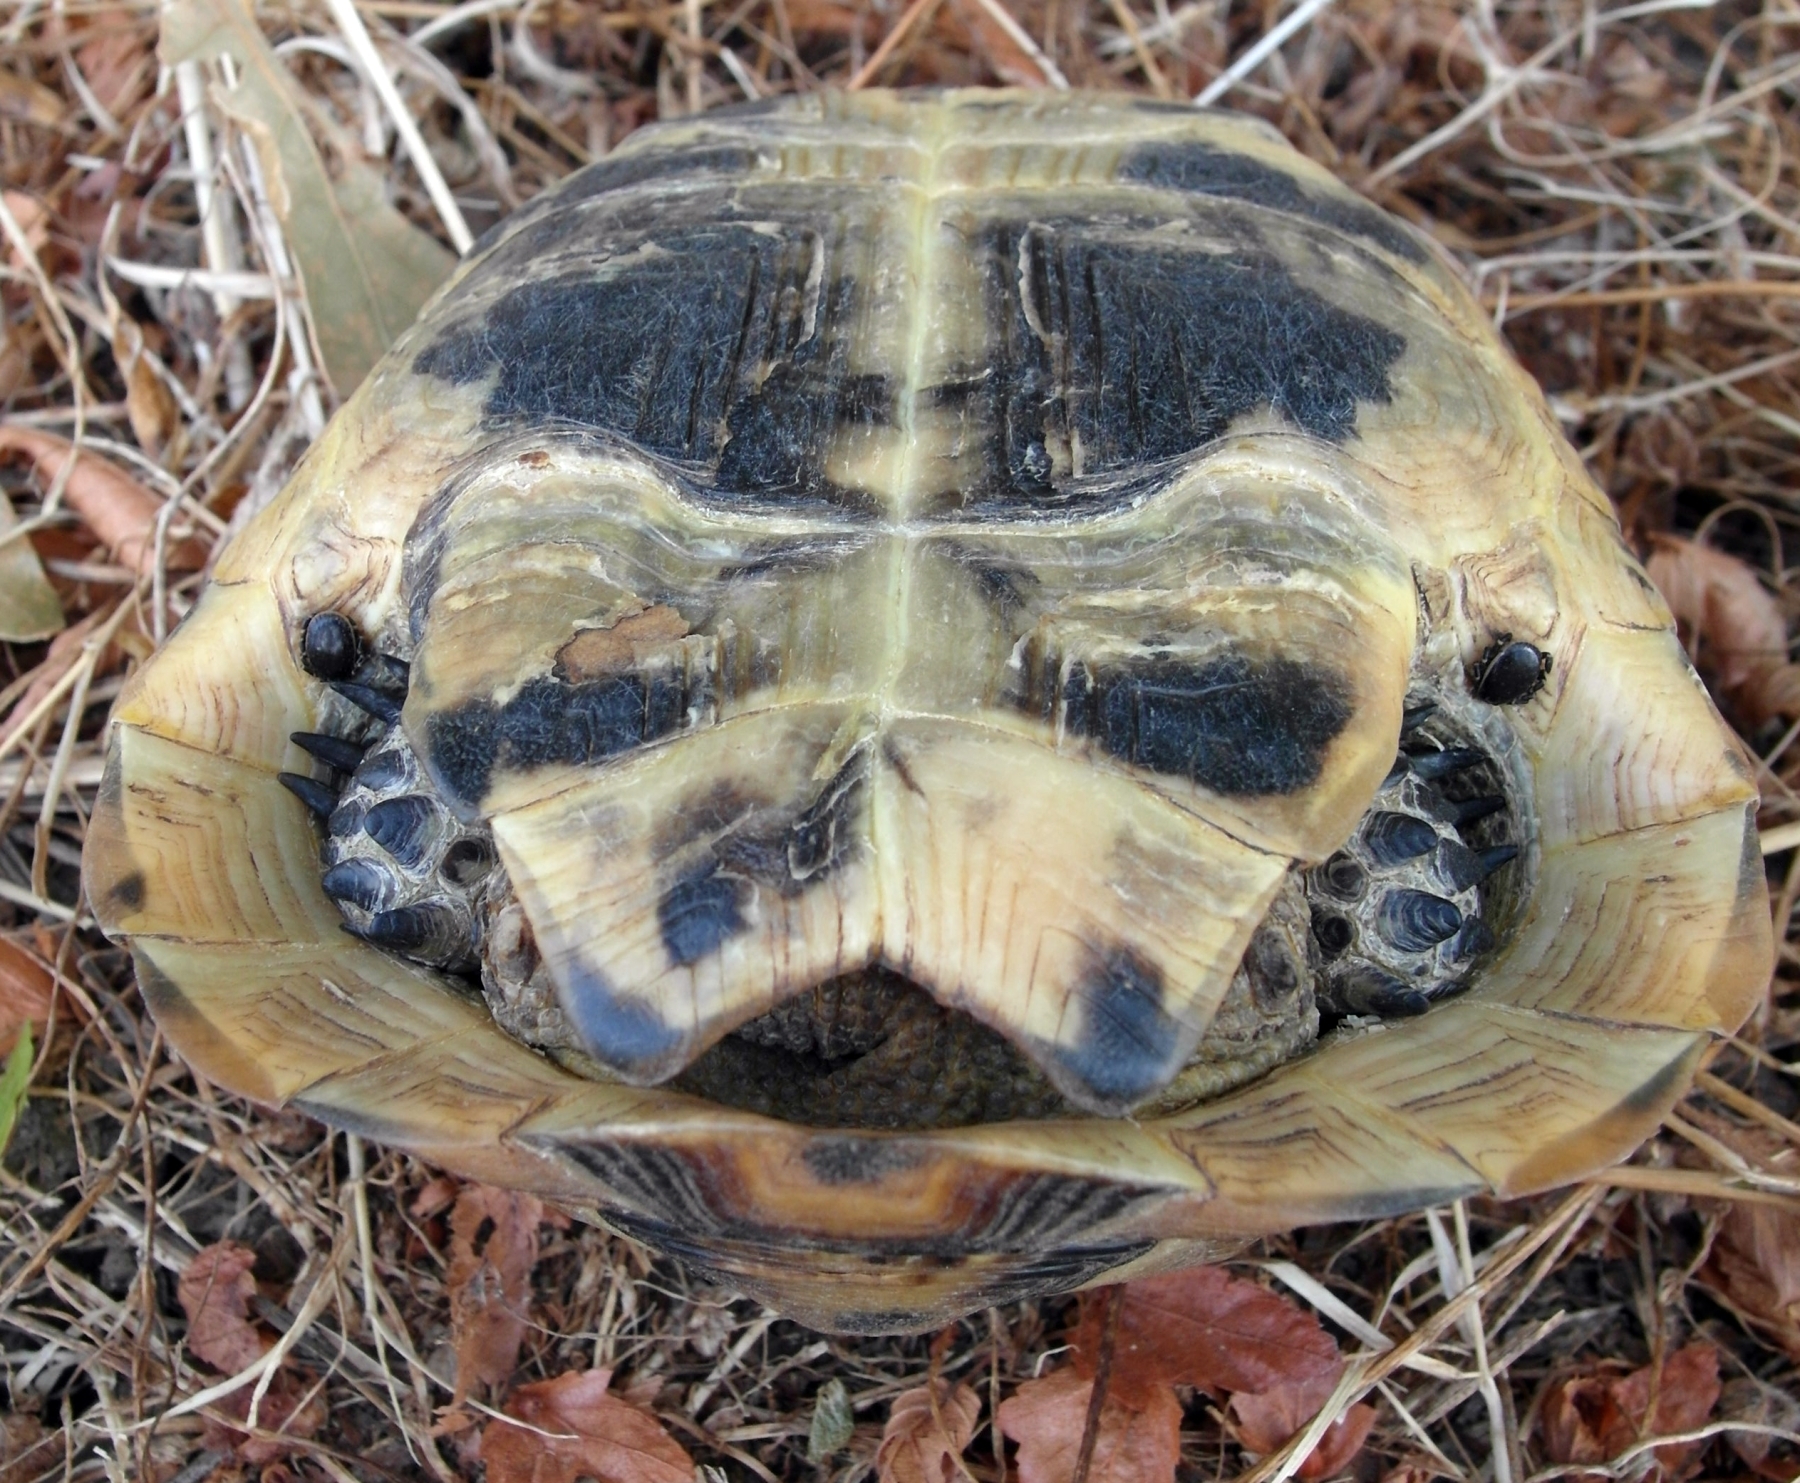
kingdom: Animalia
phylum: Chordata
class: Testudines
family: Testudinidae
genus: Testudo
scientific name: Testudo graeca
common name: Common tortoise
